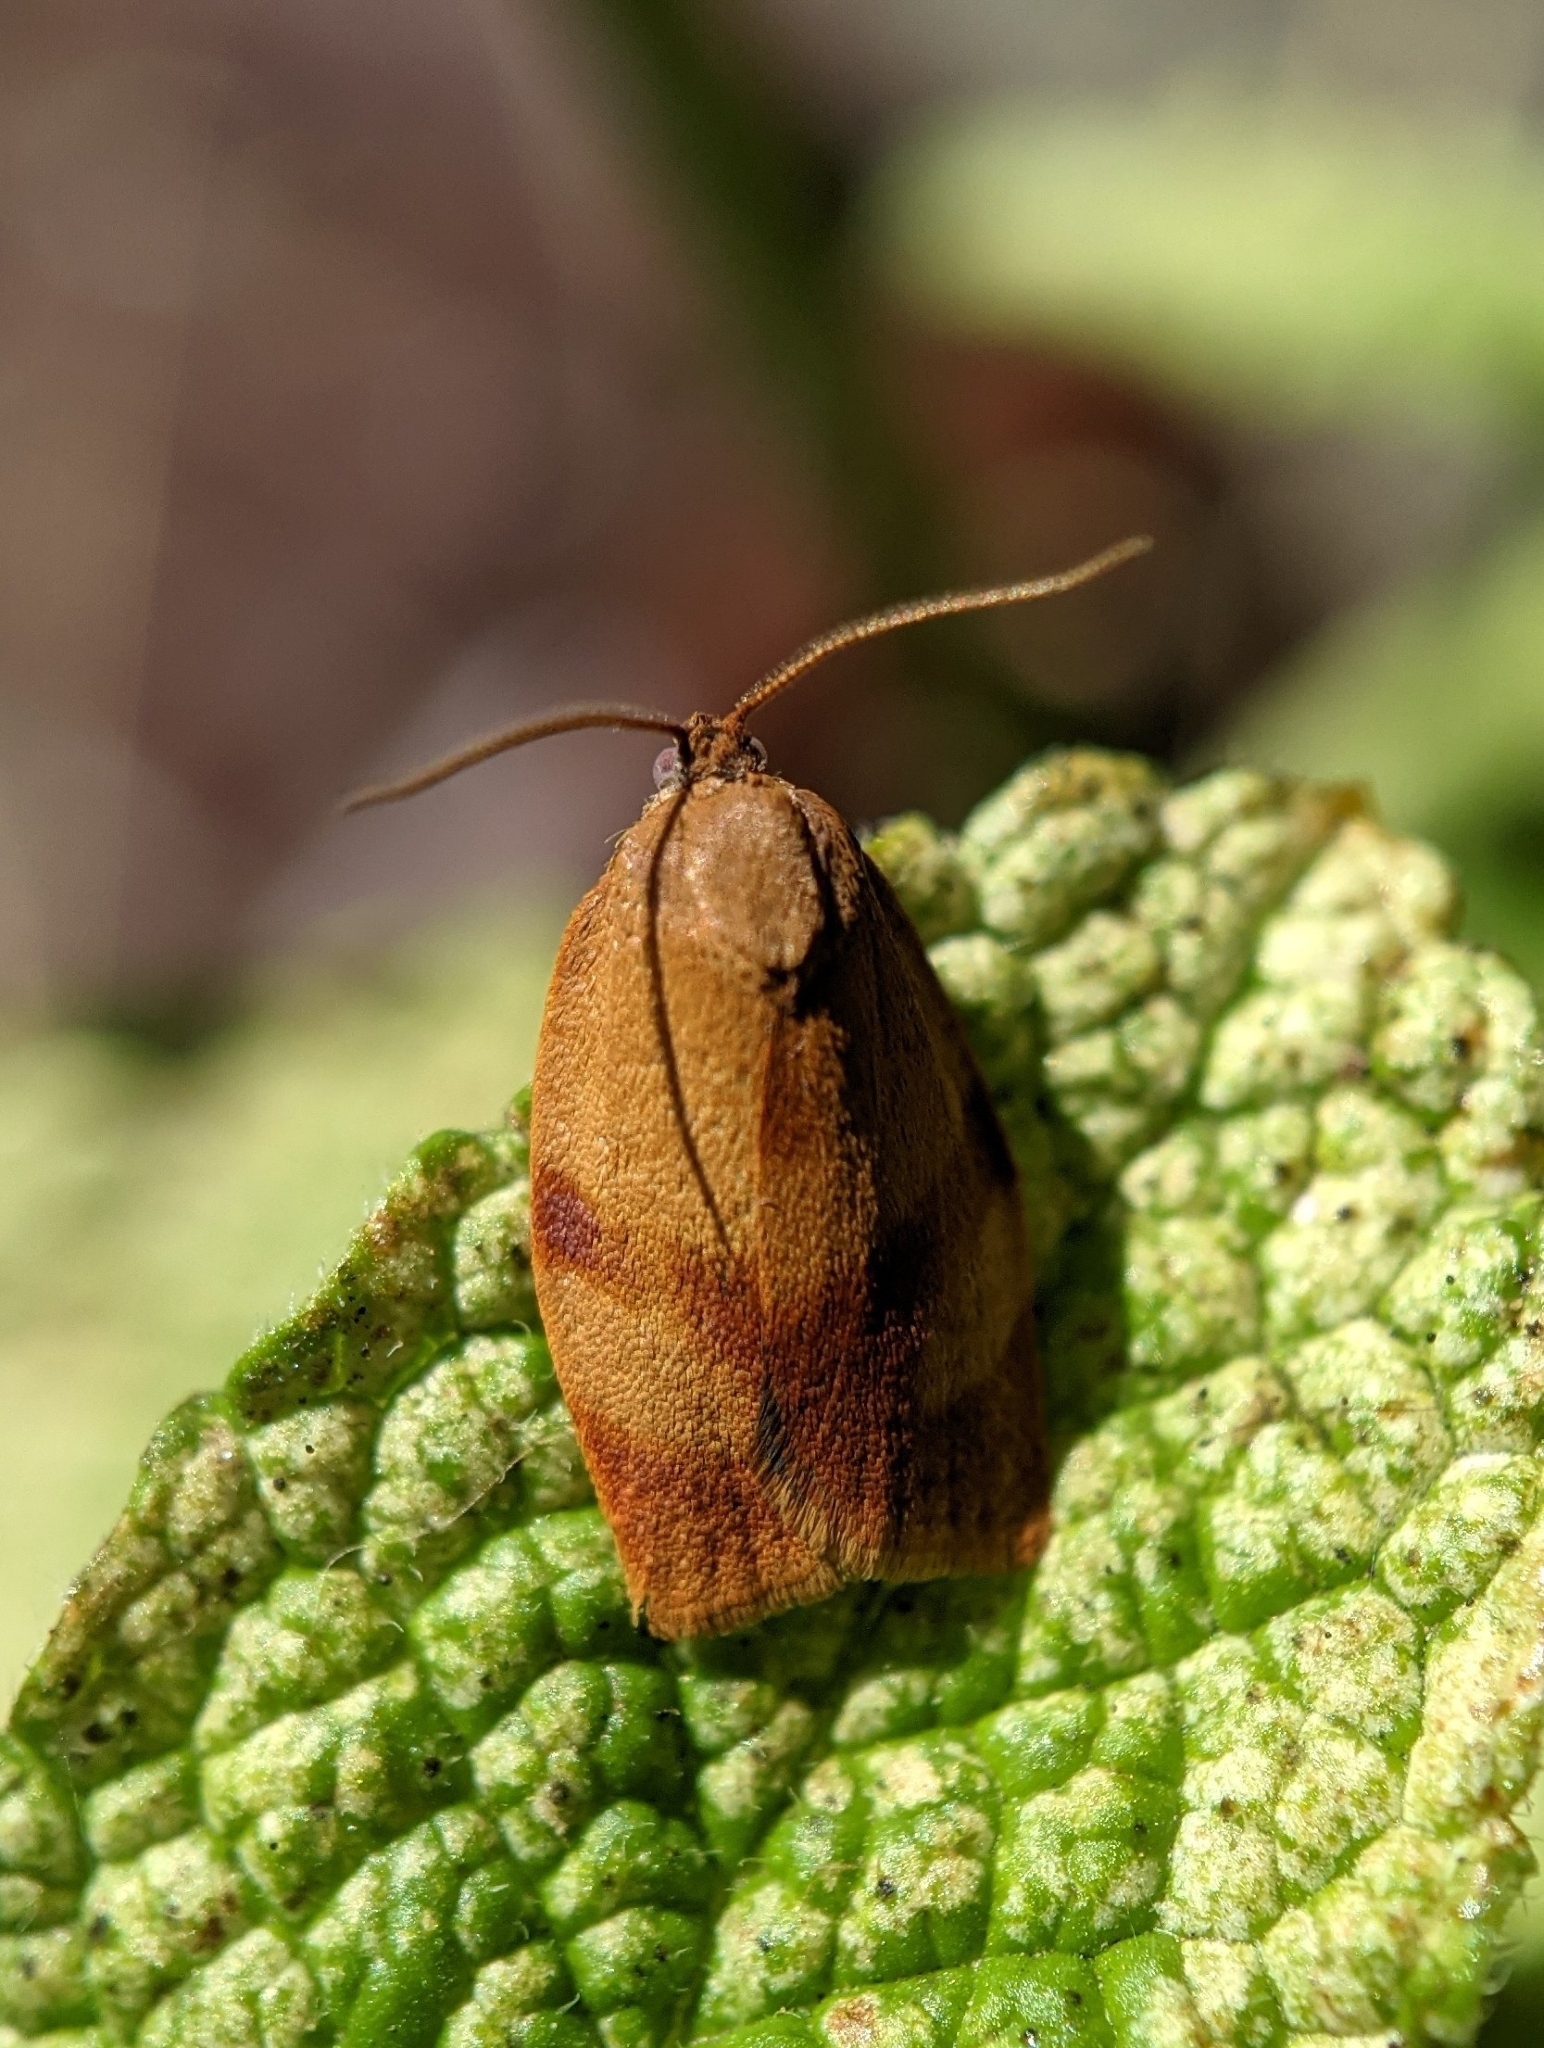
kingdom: Animalia
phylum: Arthropoda
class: Insecta
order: Lepidoptera
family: Tortricidae
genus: Cacoecimorpha
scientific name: Cacoecimorpha pronubana
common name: Carnation tortrix
